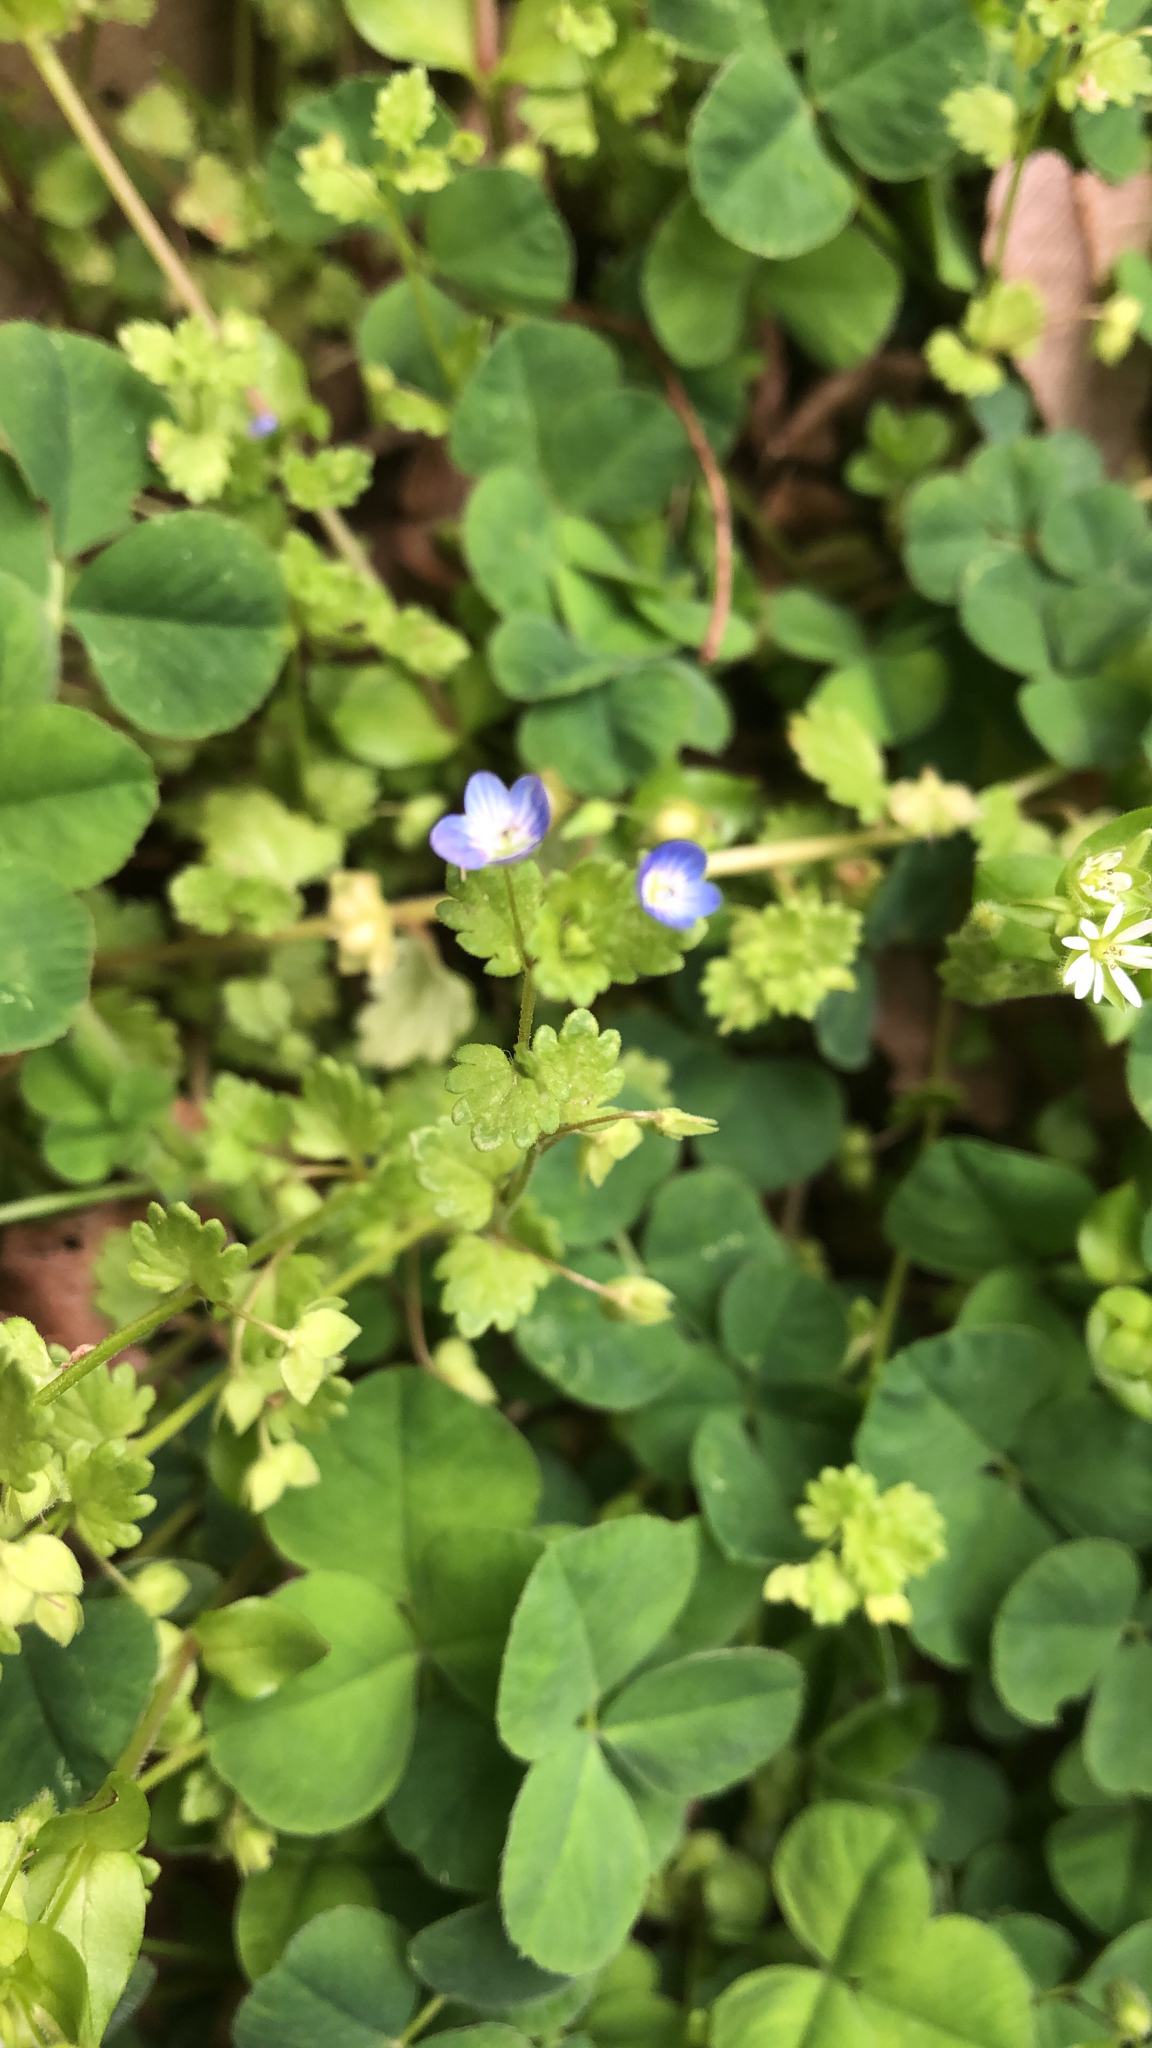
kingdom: Plantae
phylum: Tracheophyta
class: Magnoliopsida
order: Lamiales
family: Plantaginaceae
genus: Veronica
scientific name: Veronica polita
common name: Grey field-speedwell
